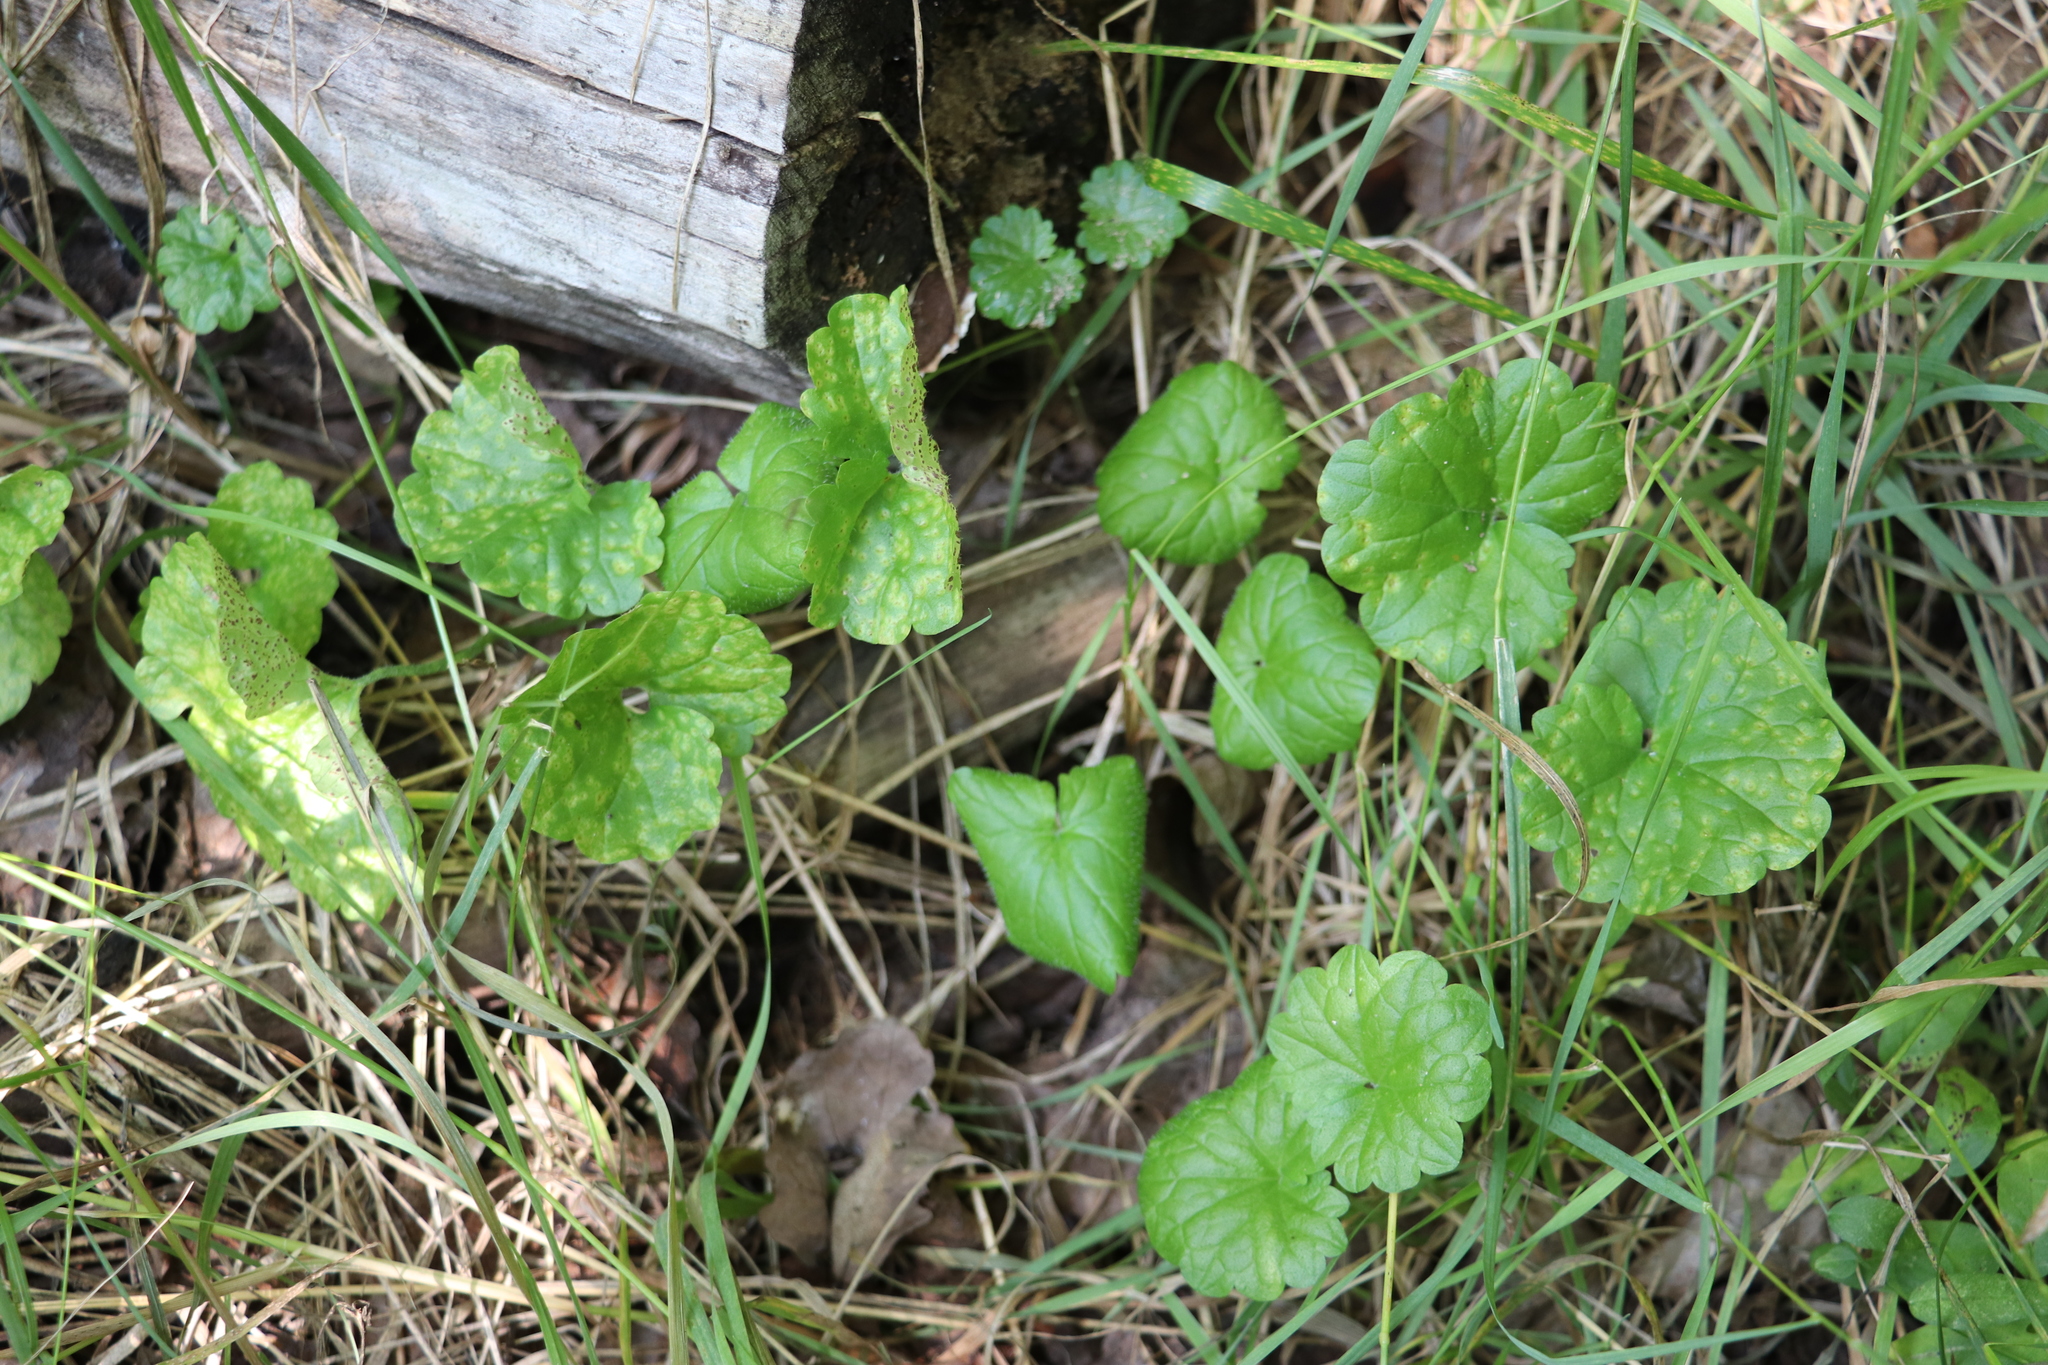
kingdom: Plantae
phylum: Tracheophyta
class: Magnoliopsida
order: Lamiales
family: Lamiaceae
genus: Glechoma
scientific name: Glechoma hederacea
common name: Ground ivy
